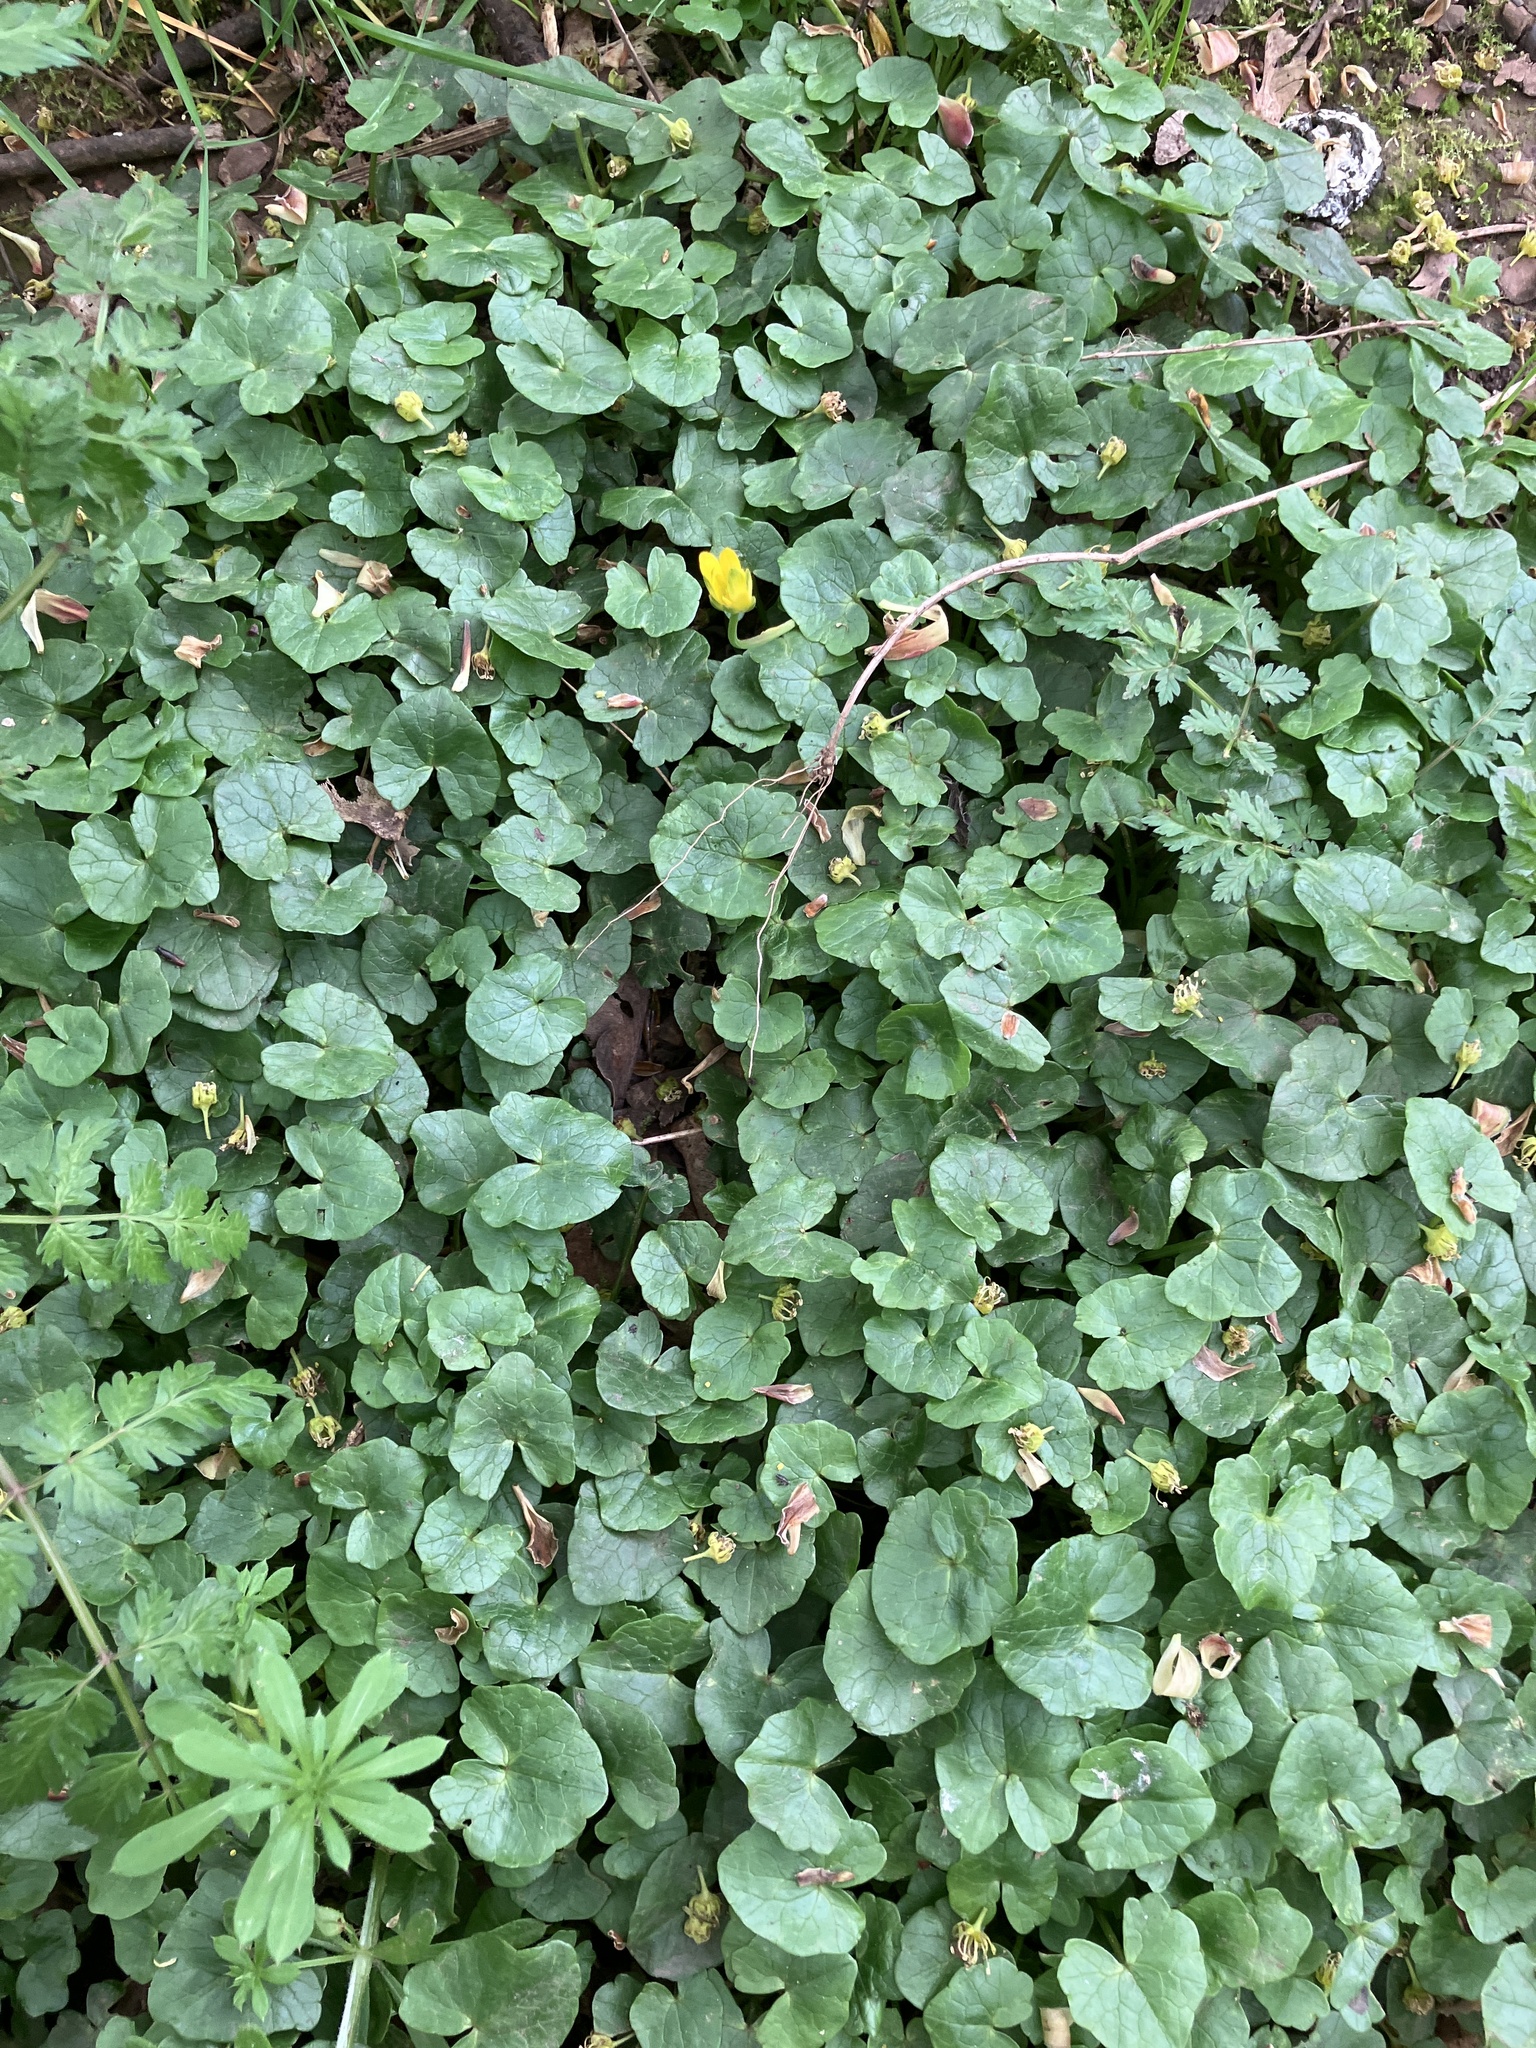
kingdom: Plantae
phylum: Tracheophyta
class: Magnoliopsida
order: Ranunculales
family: Ranunculaceae
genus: Ficaria
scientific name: Ficaria verna
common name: Lesser celandine
